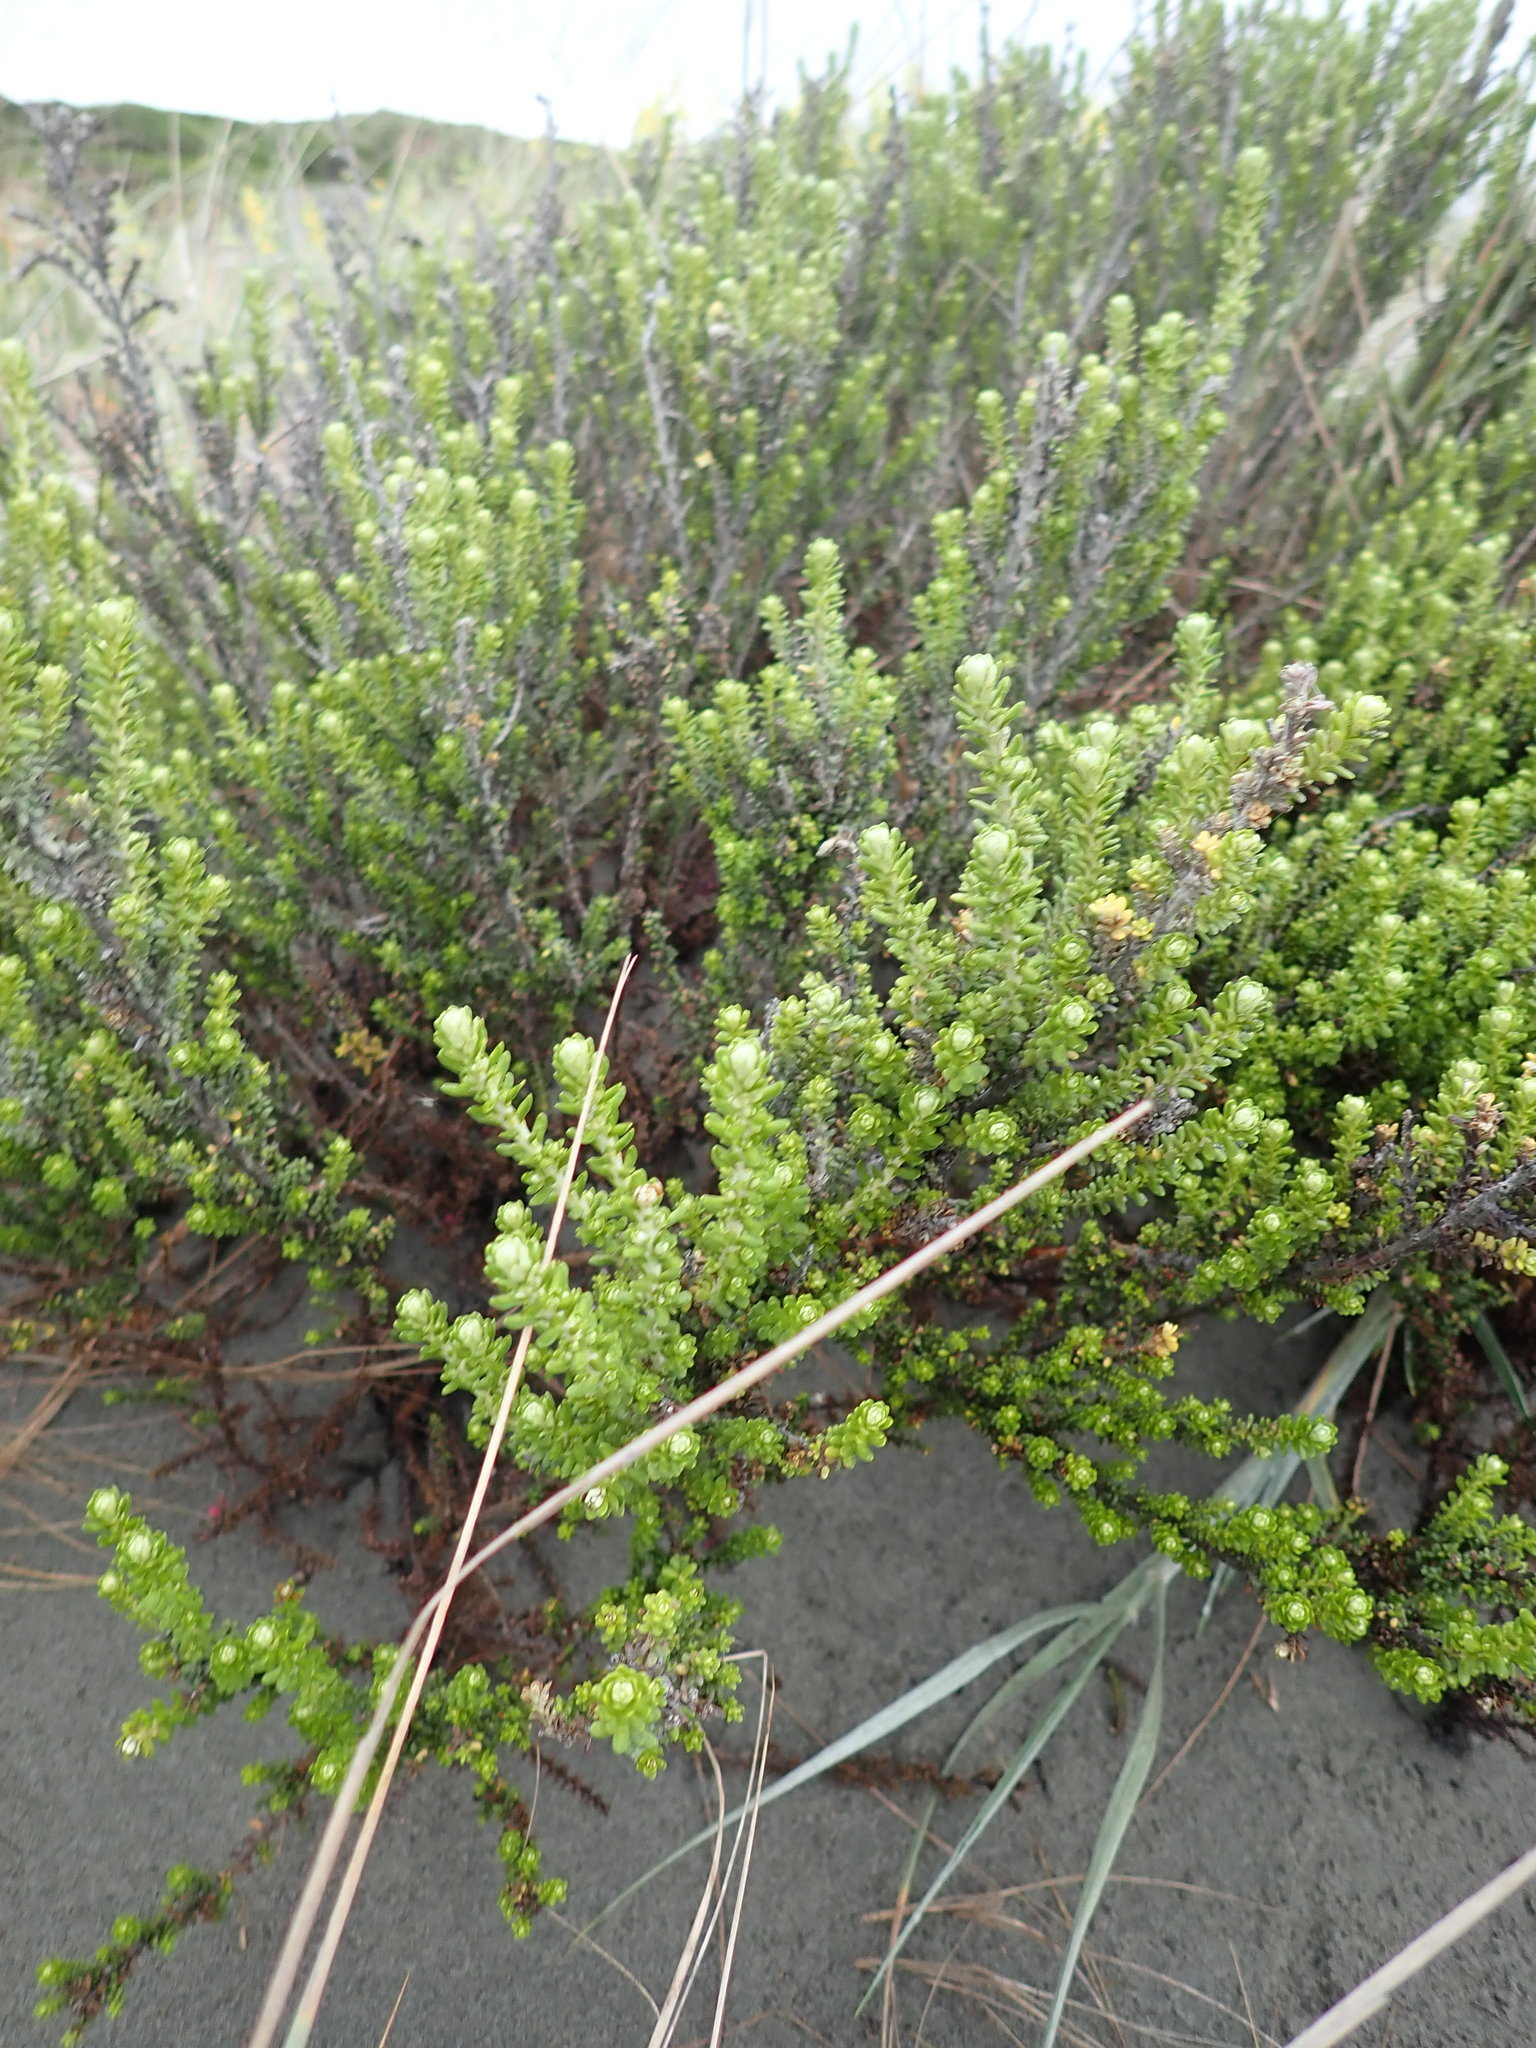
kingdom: Plantae
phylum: Tracheophyta
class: Magnoliopsida
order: Asterales
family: Asteraceae
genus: Ozothamnus
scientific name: Ozothamnus leptophyllus
